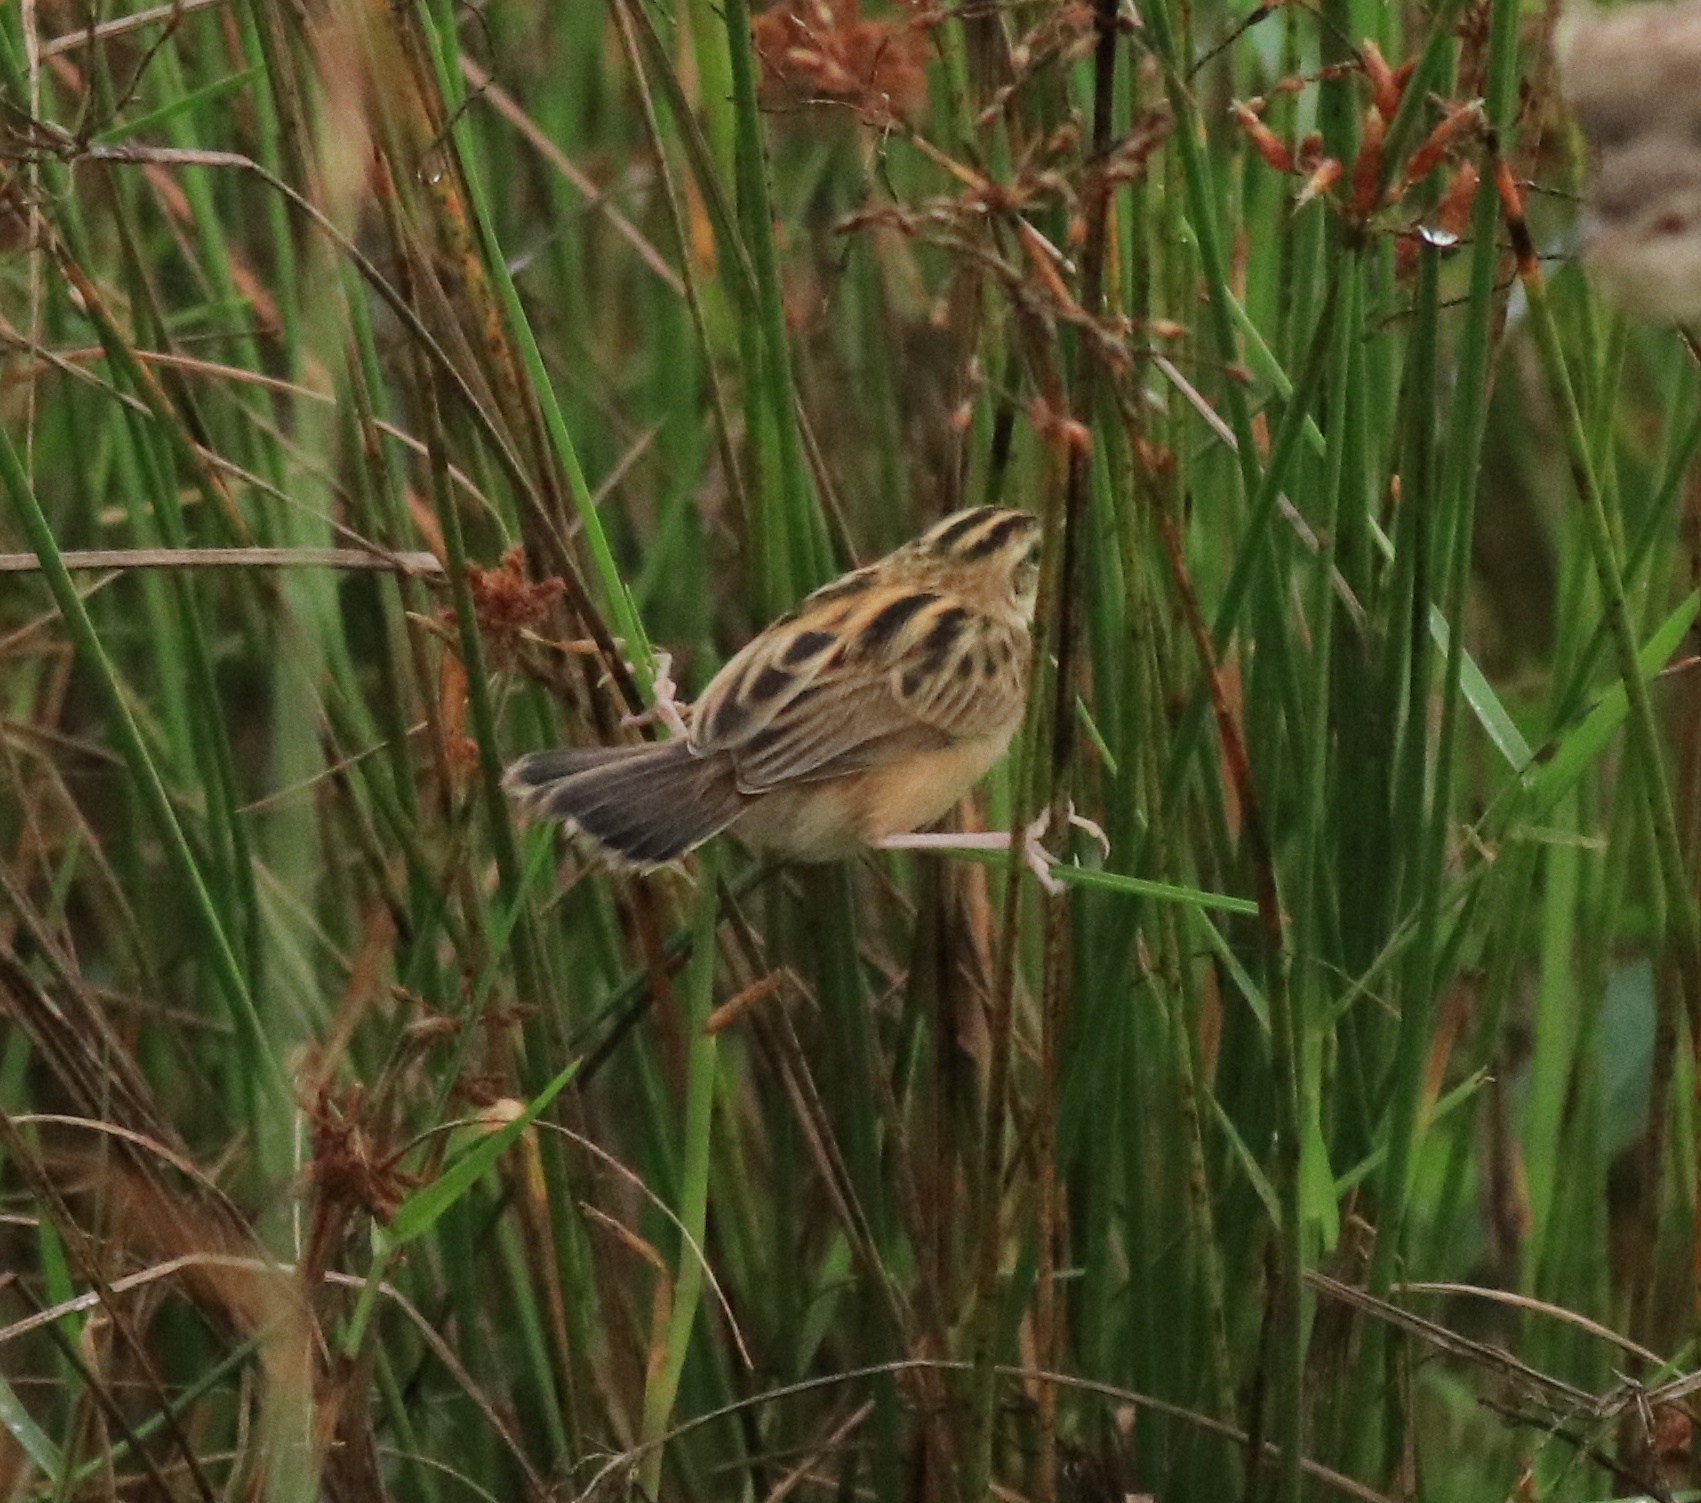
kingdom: Animalia
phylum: Chordata
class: Aves
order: Passeriformes
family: Cisticolidae
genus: Cisticola
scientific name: Cisticola juncidis
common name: Zitting cisticola
